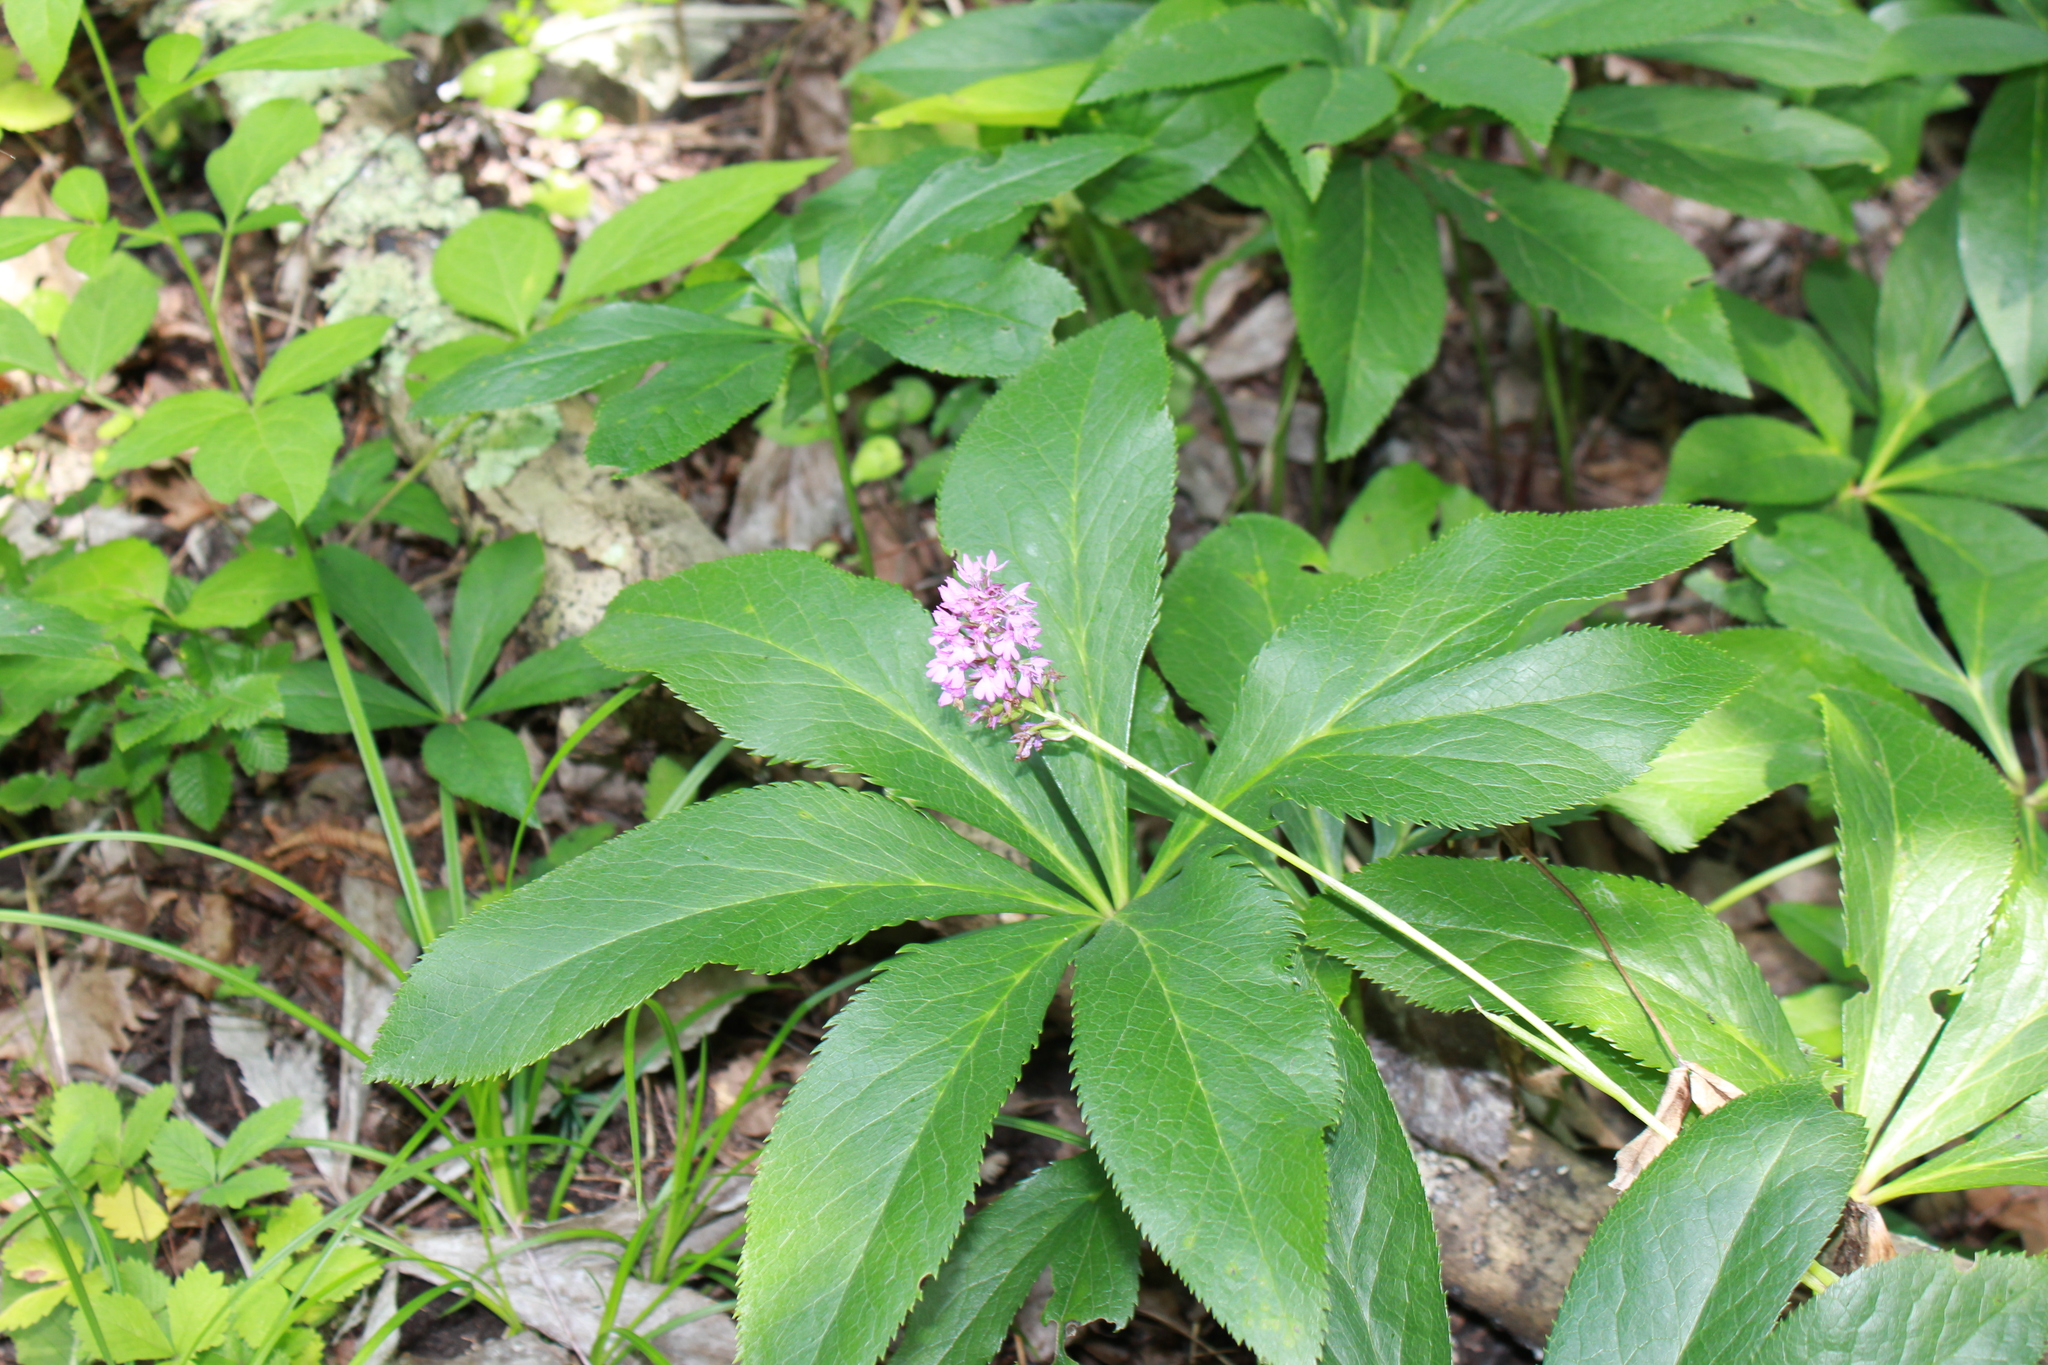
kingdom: Plantae
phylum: Tracheophyta
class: Liliopsida
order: Asparagales
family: Orchidaceae
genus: Anacamptis
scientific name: Anacamptis pyramidalis
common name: Pyramidal orchid
